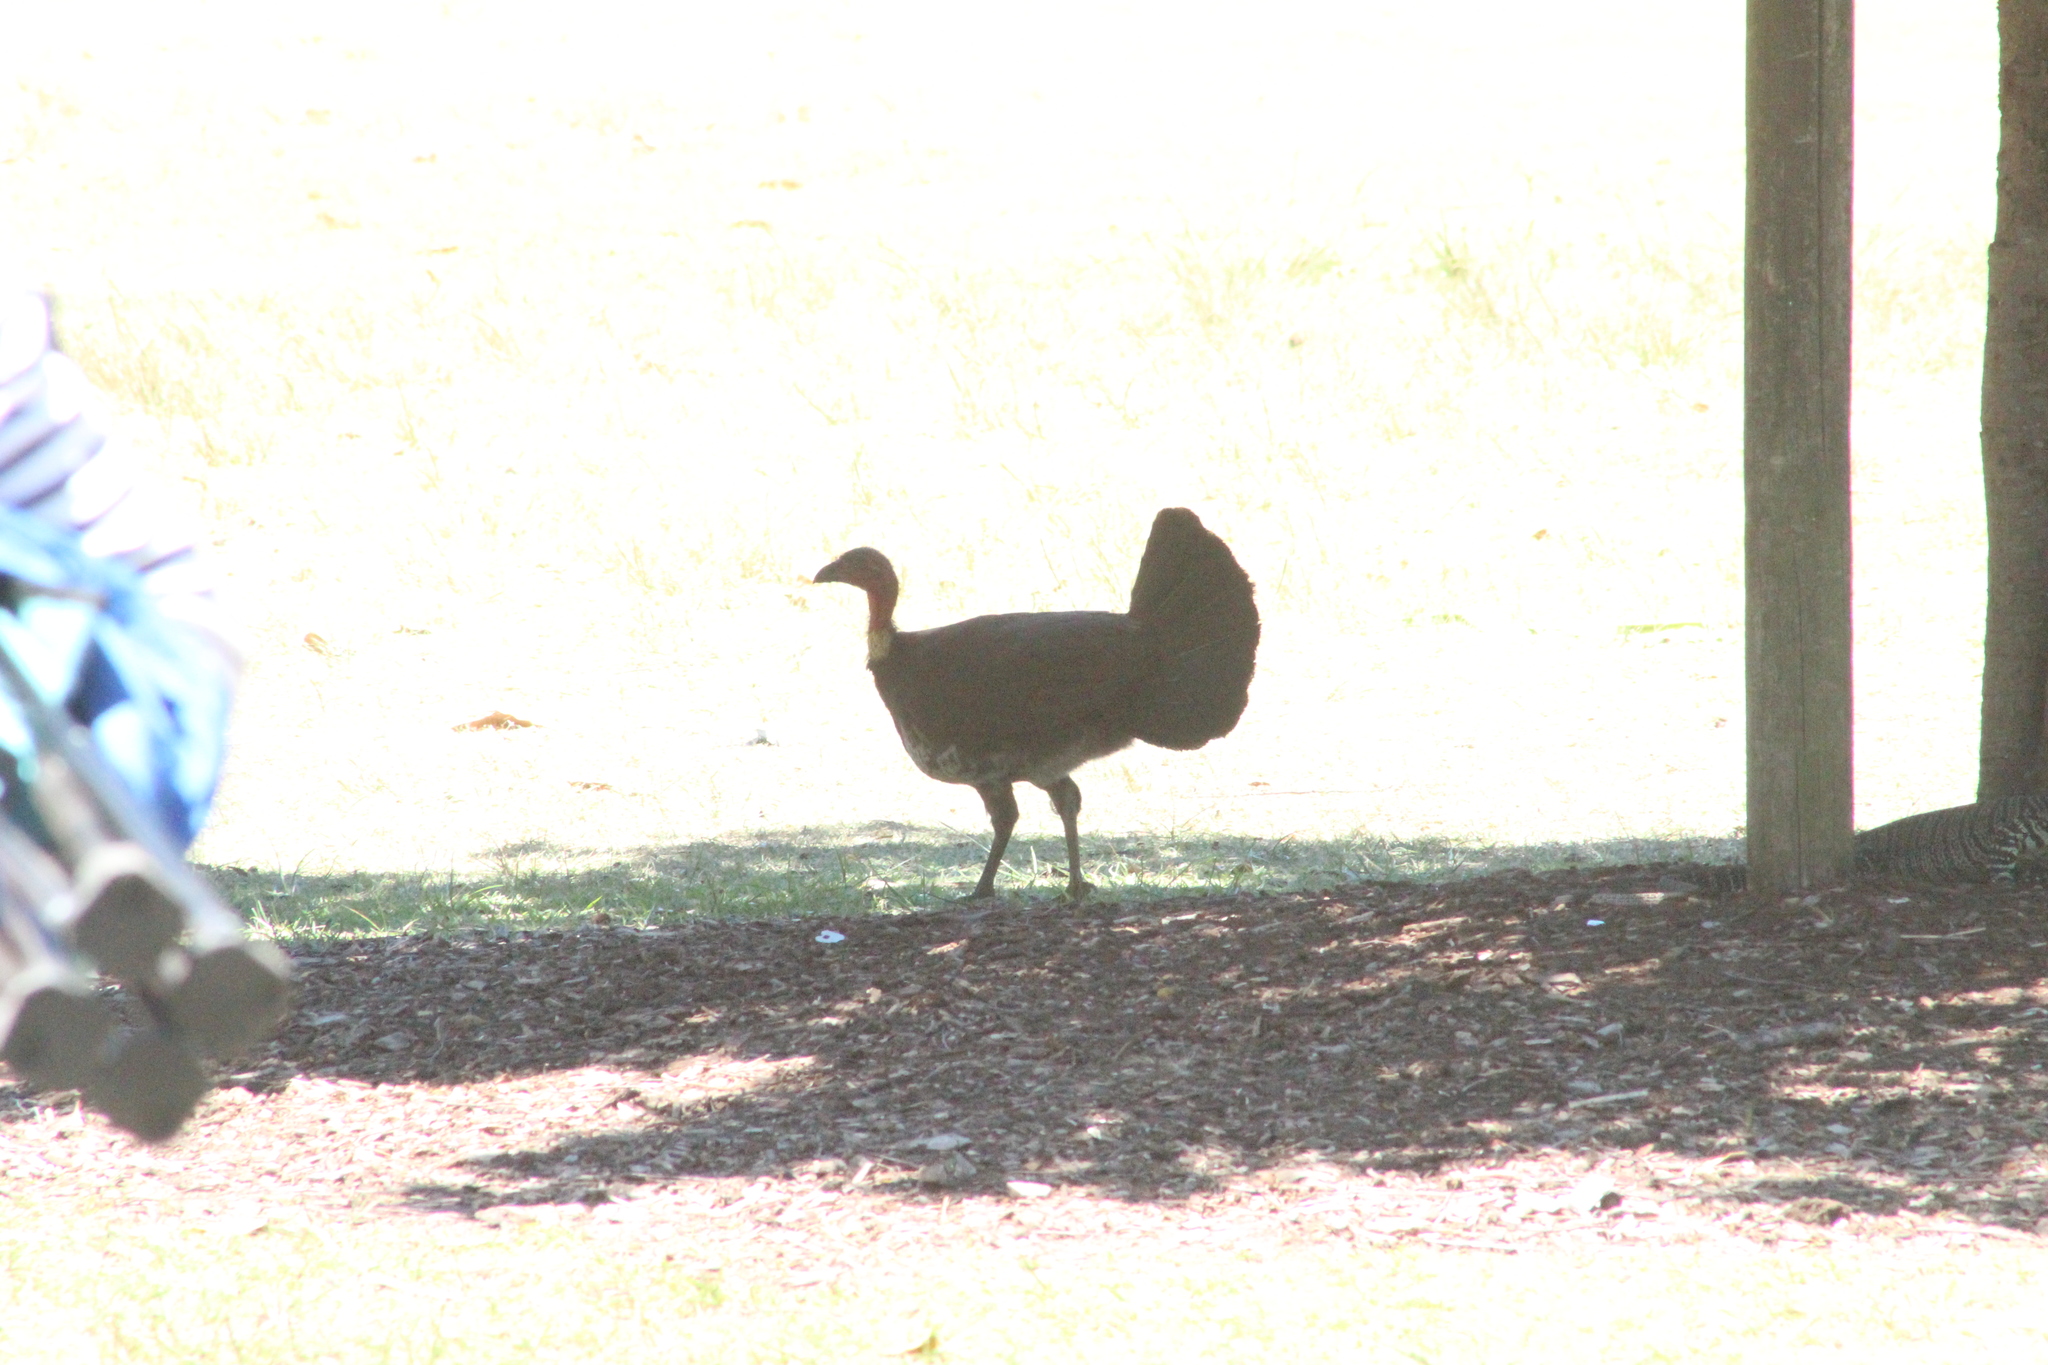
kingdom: Animalia
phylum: Chordata
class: Aves
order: Galliformes
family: Megapodiidae
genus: Alectura
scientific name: Alectura lathami
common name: Australian brushturkey
